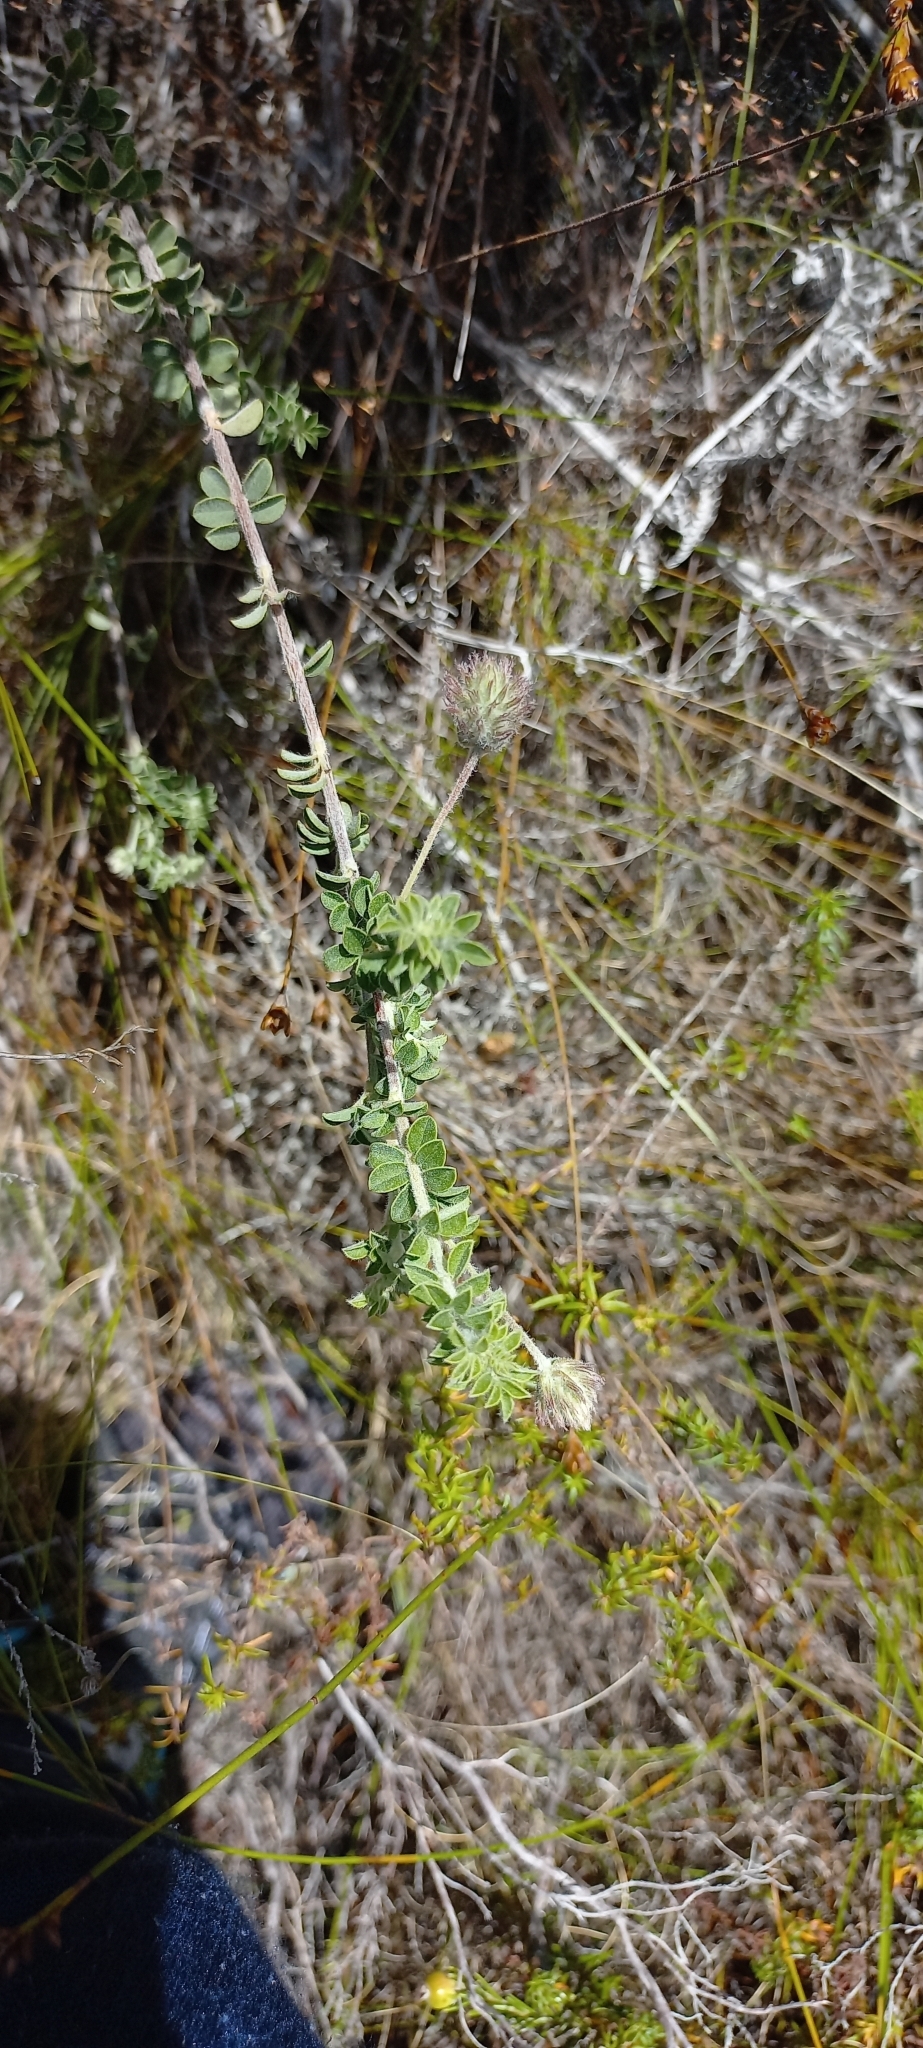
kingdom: Plantae
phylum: Tracheophyta
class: Magnoliopsida
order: Fabales
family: Fabaceae
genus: Indigofera
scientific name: Indigofera alopecuroides
